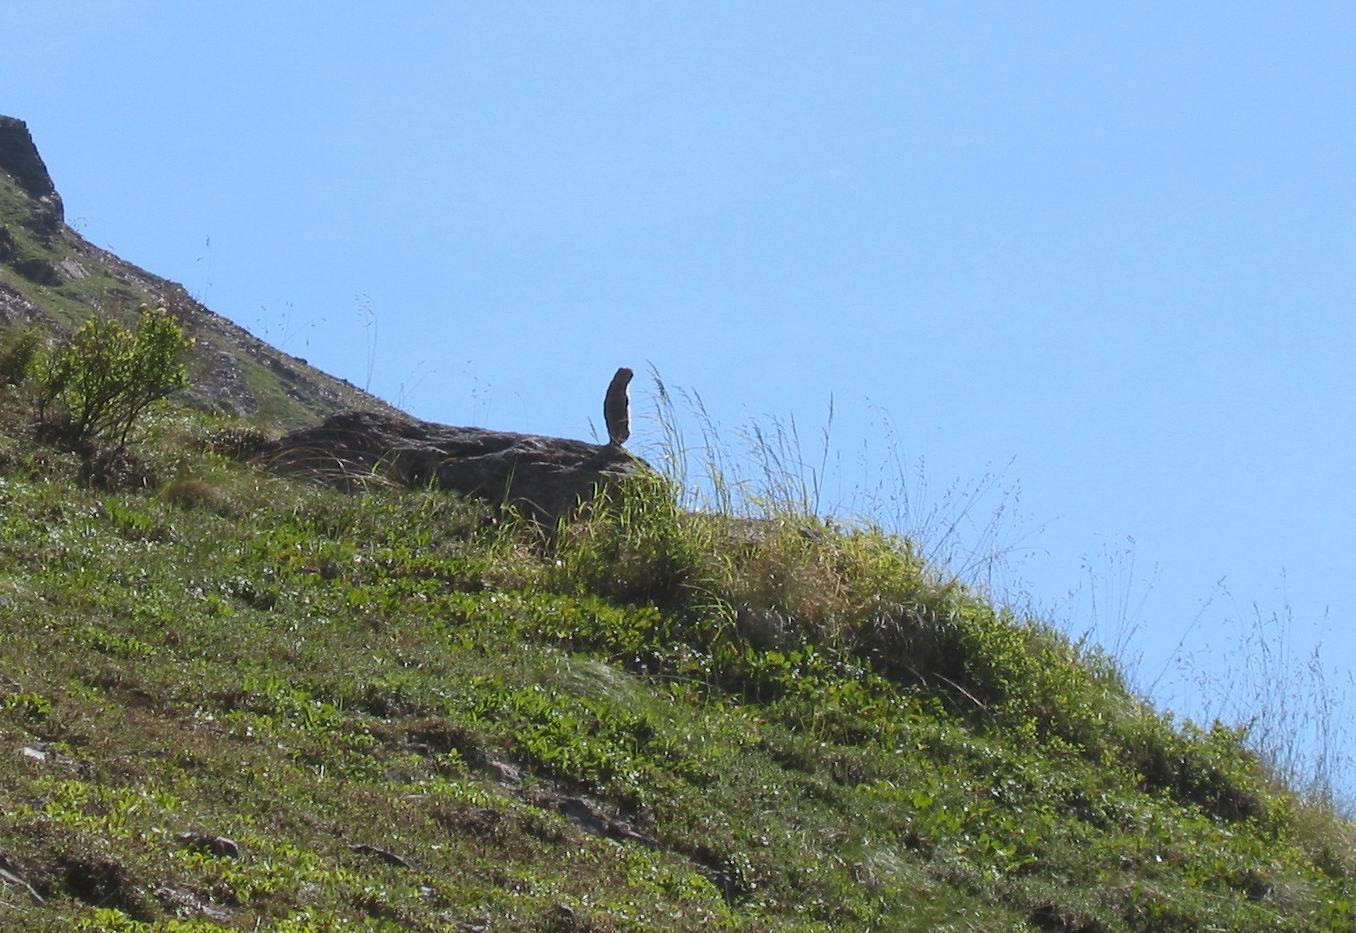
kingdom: Animalia
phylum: Chordata
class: Mammalia
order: Rodentia
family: Sciuridae
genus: Urocitellus
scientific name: Urocitellus parryii
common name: Arctic ground squirrel
